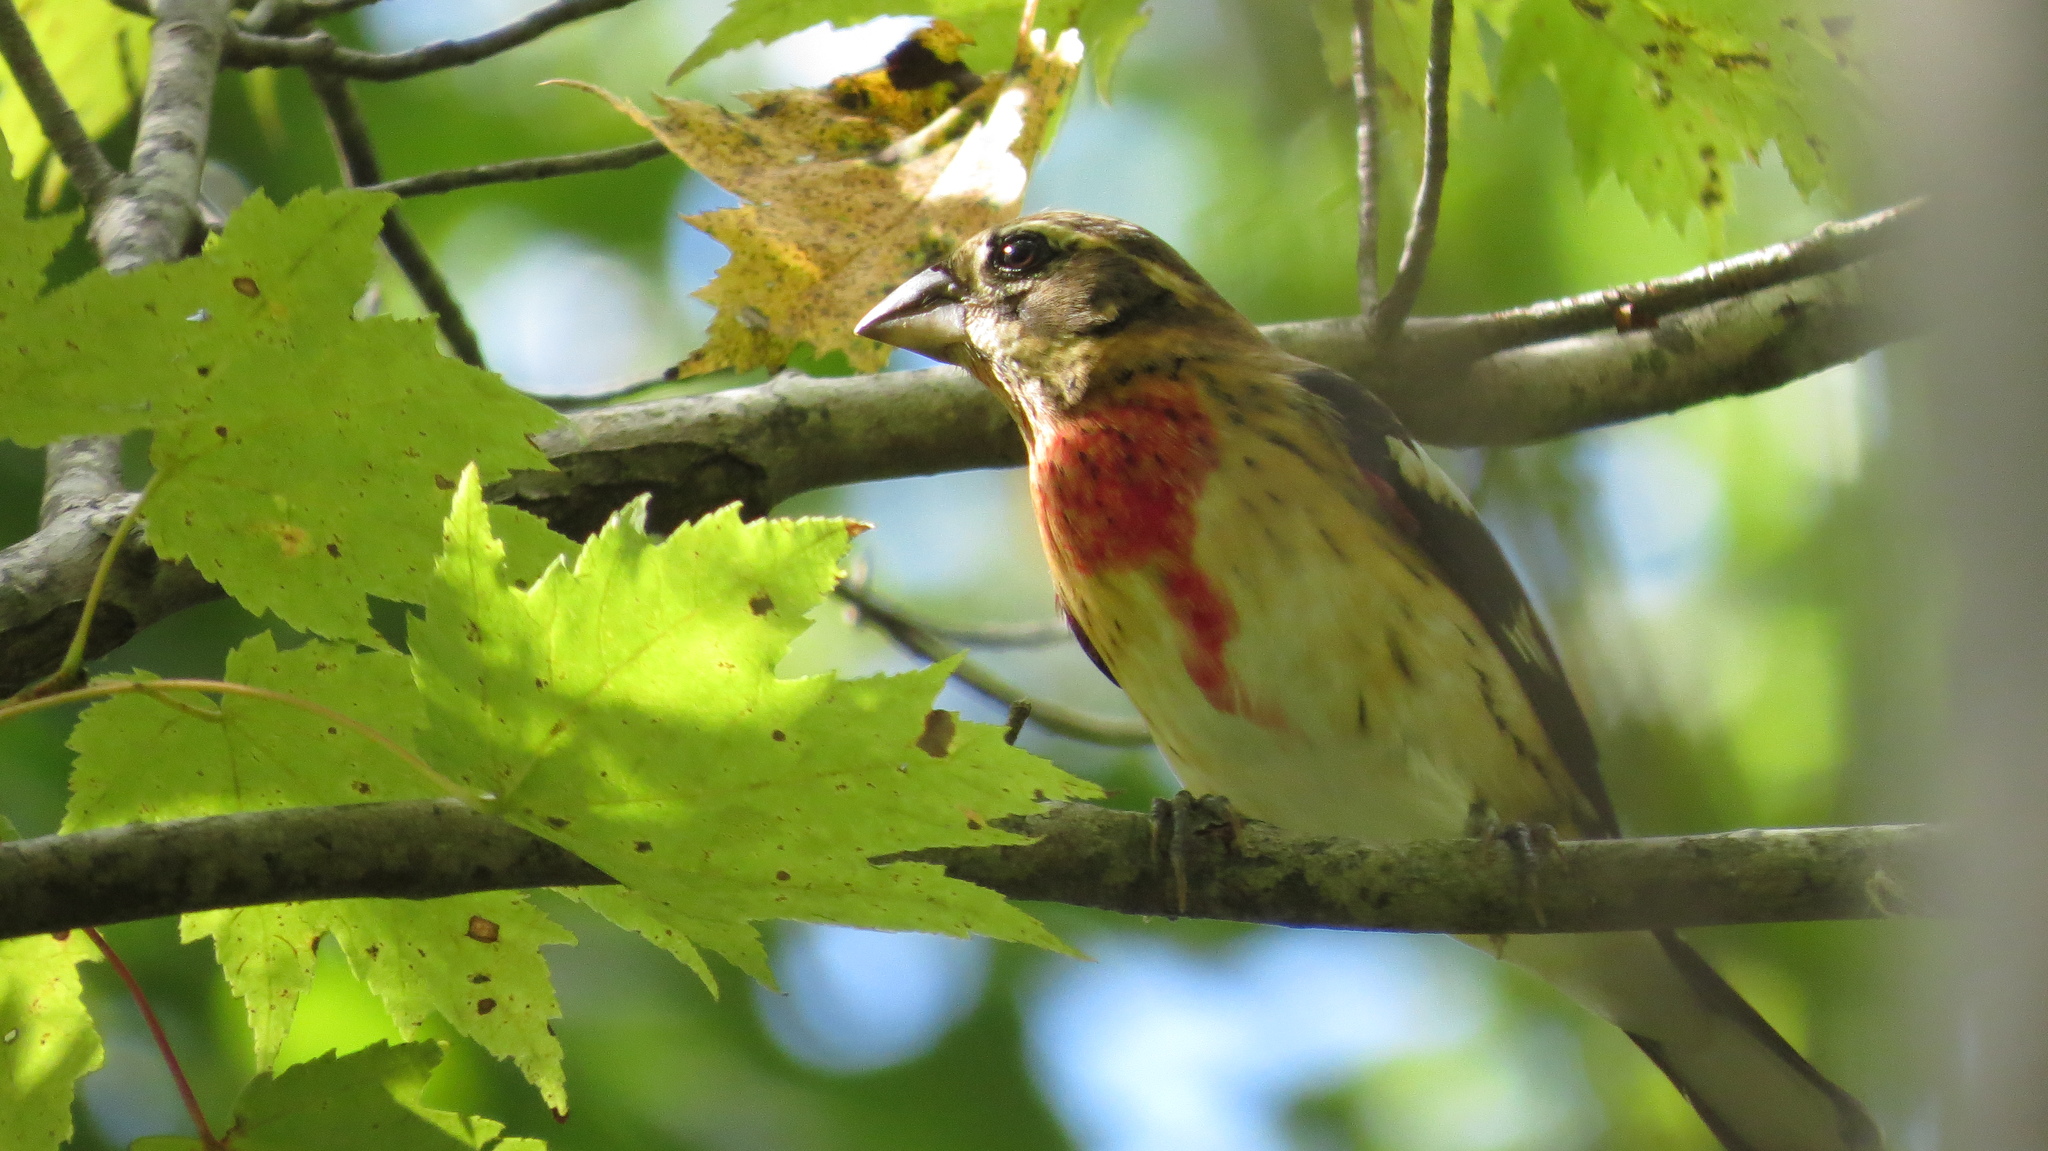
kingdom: Animalia
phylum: Chordata
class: Aves
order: Passeriformes
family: Cardinalidae
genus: Pheucticus
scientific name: Pheucticus ludovicianus
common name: Rose-breasted grosbeak
